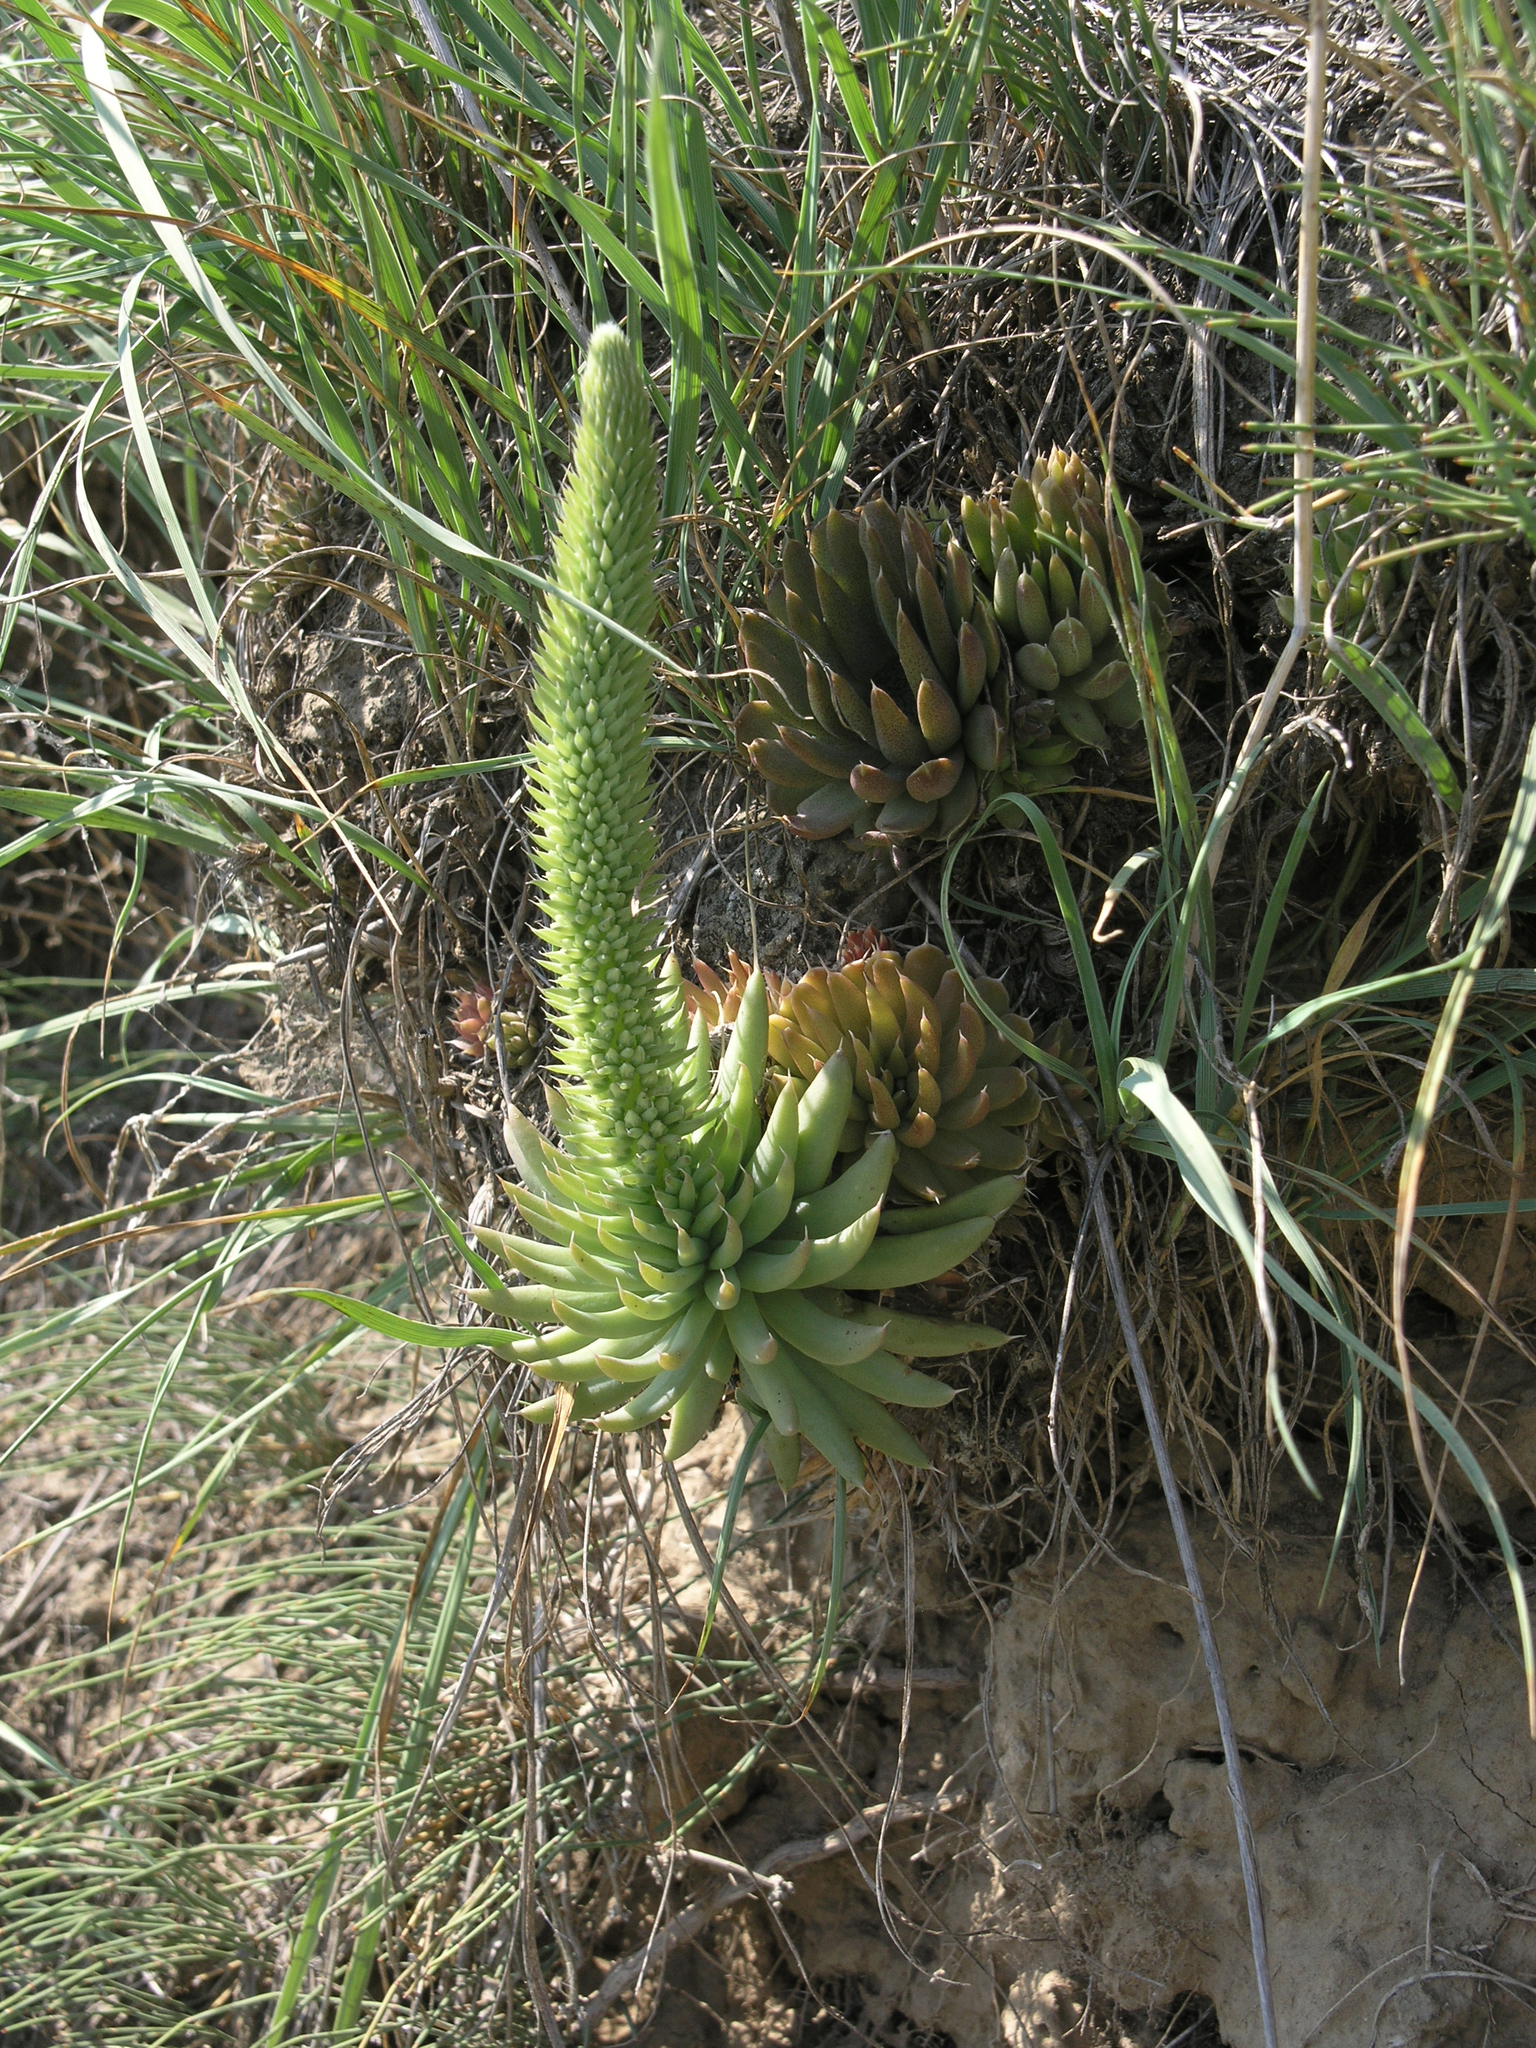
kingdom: Plantae
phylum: Tracheophyta
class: Magnoliopsida
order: Saxifragales
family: Crassulaceae
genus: Orostachys
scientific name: Orostachys spinosa
